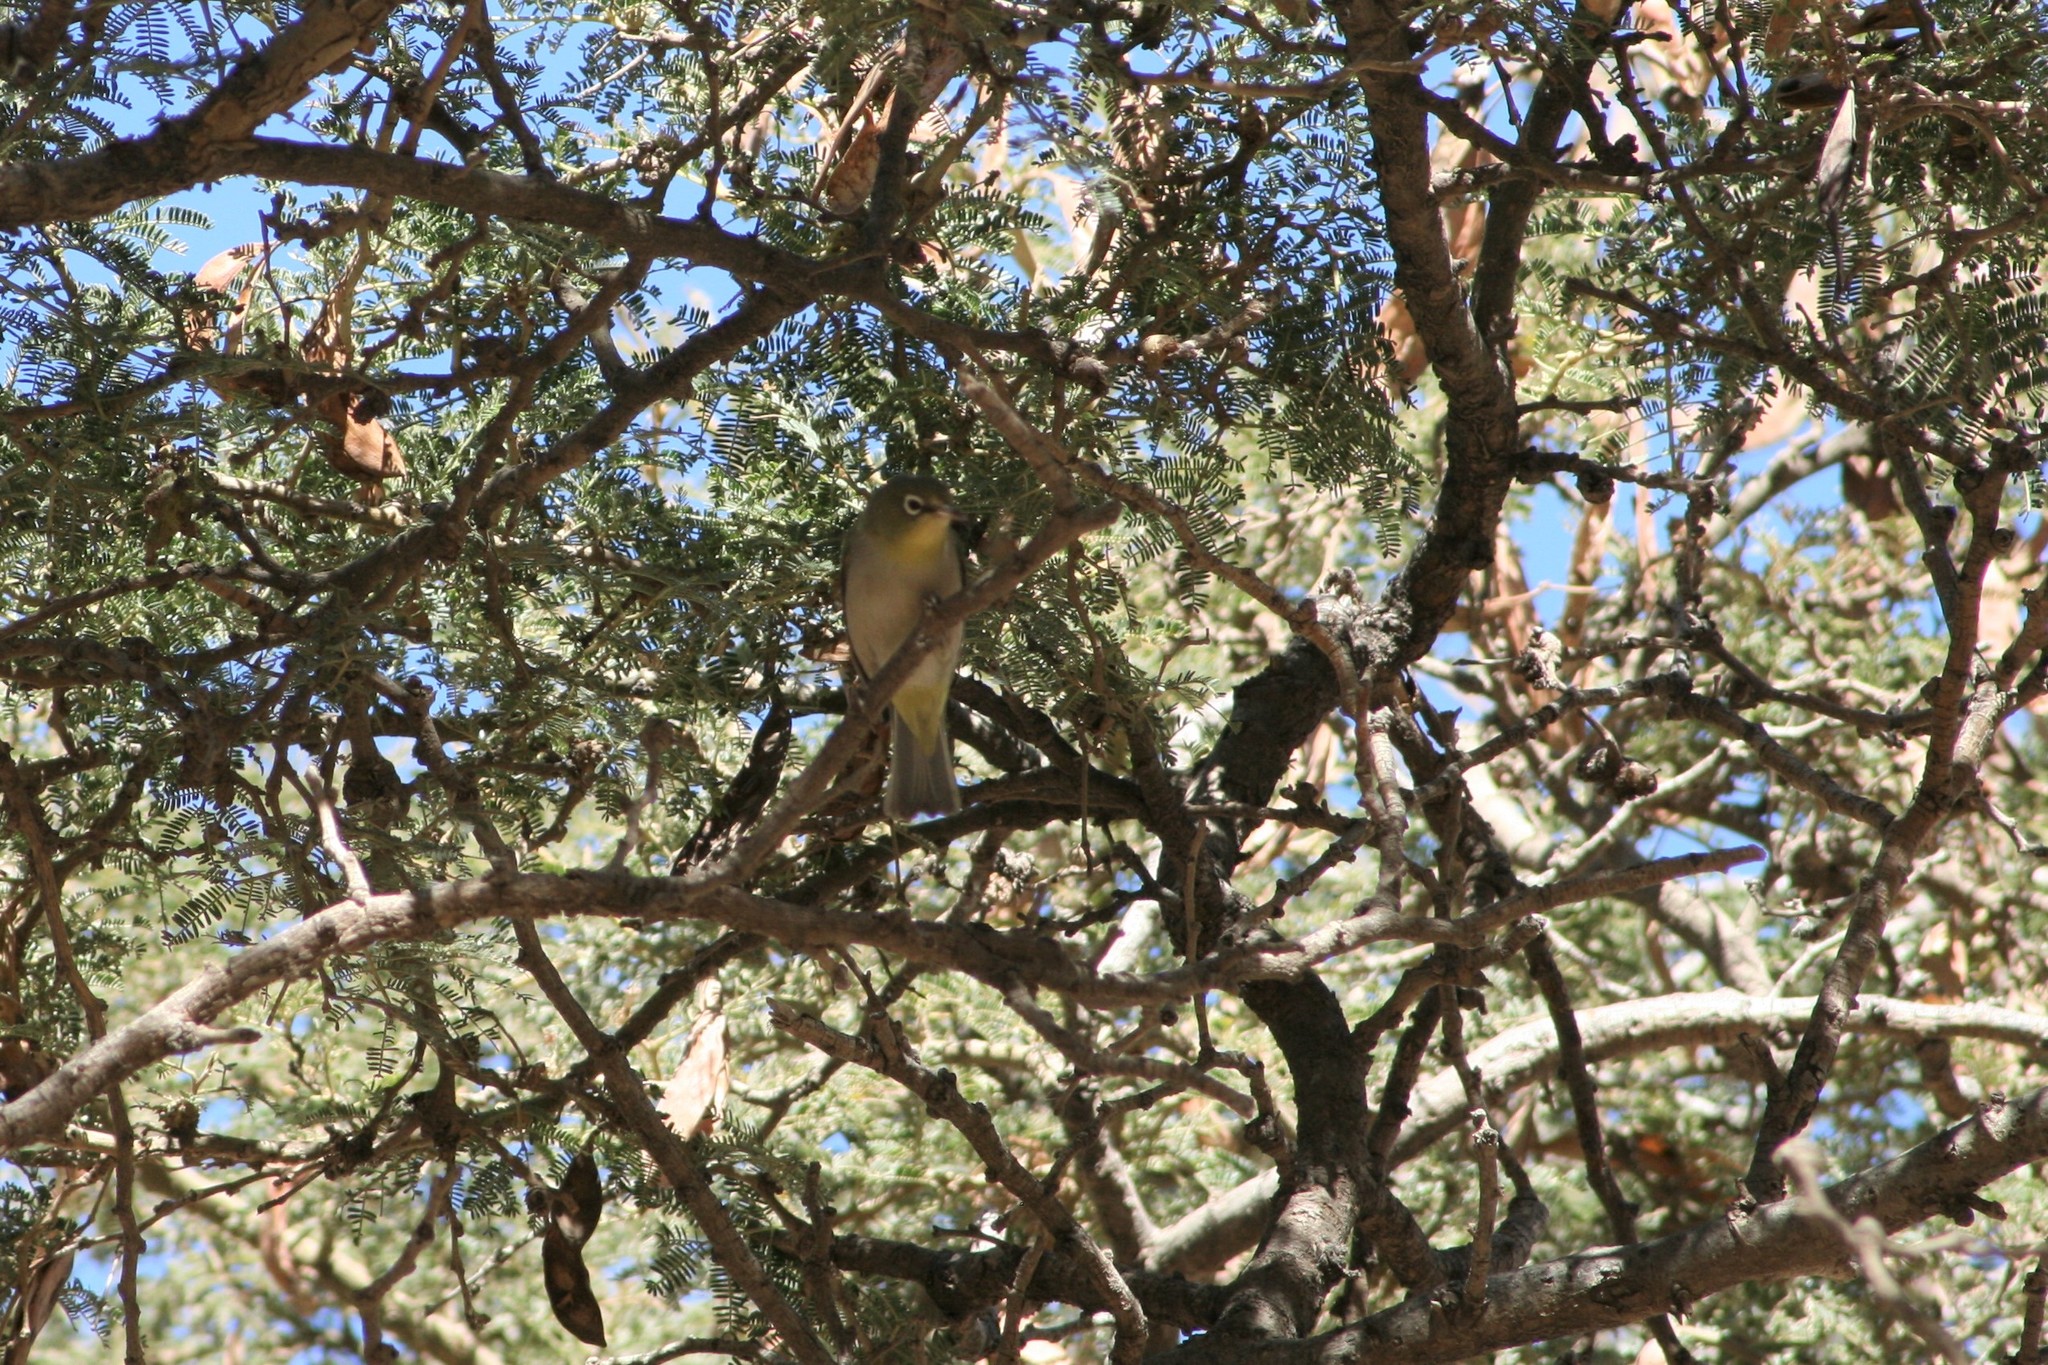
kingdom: Animalia
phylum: Chordata
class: Aves
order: Passeriformes
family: Zosteropidae
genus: Zosterops
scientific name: Zosterops abyssinicus
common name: Abyssinian white-eye
